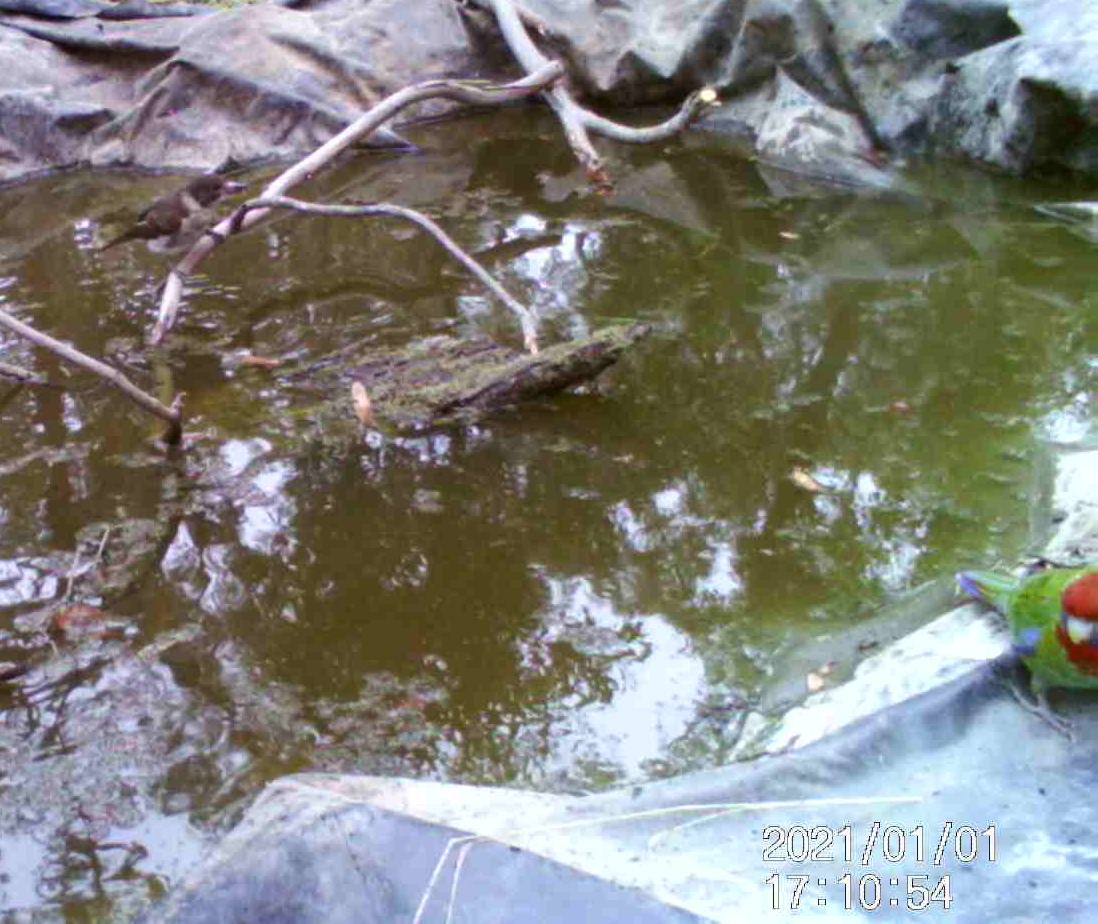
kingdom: Animalia
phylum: Chordata
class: Aves
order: Passeriformes
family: Cracticidae
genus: Cracticus
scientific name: Cracticus torquatus
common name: Grey butcherbird
